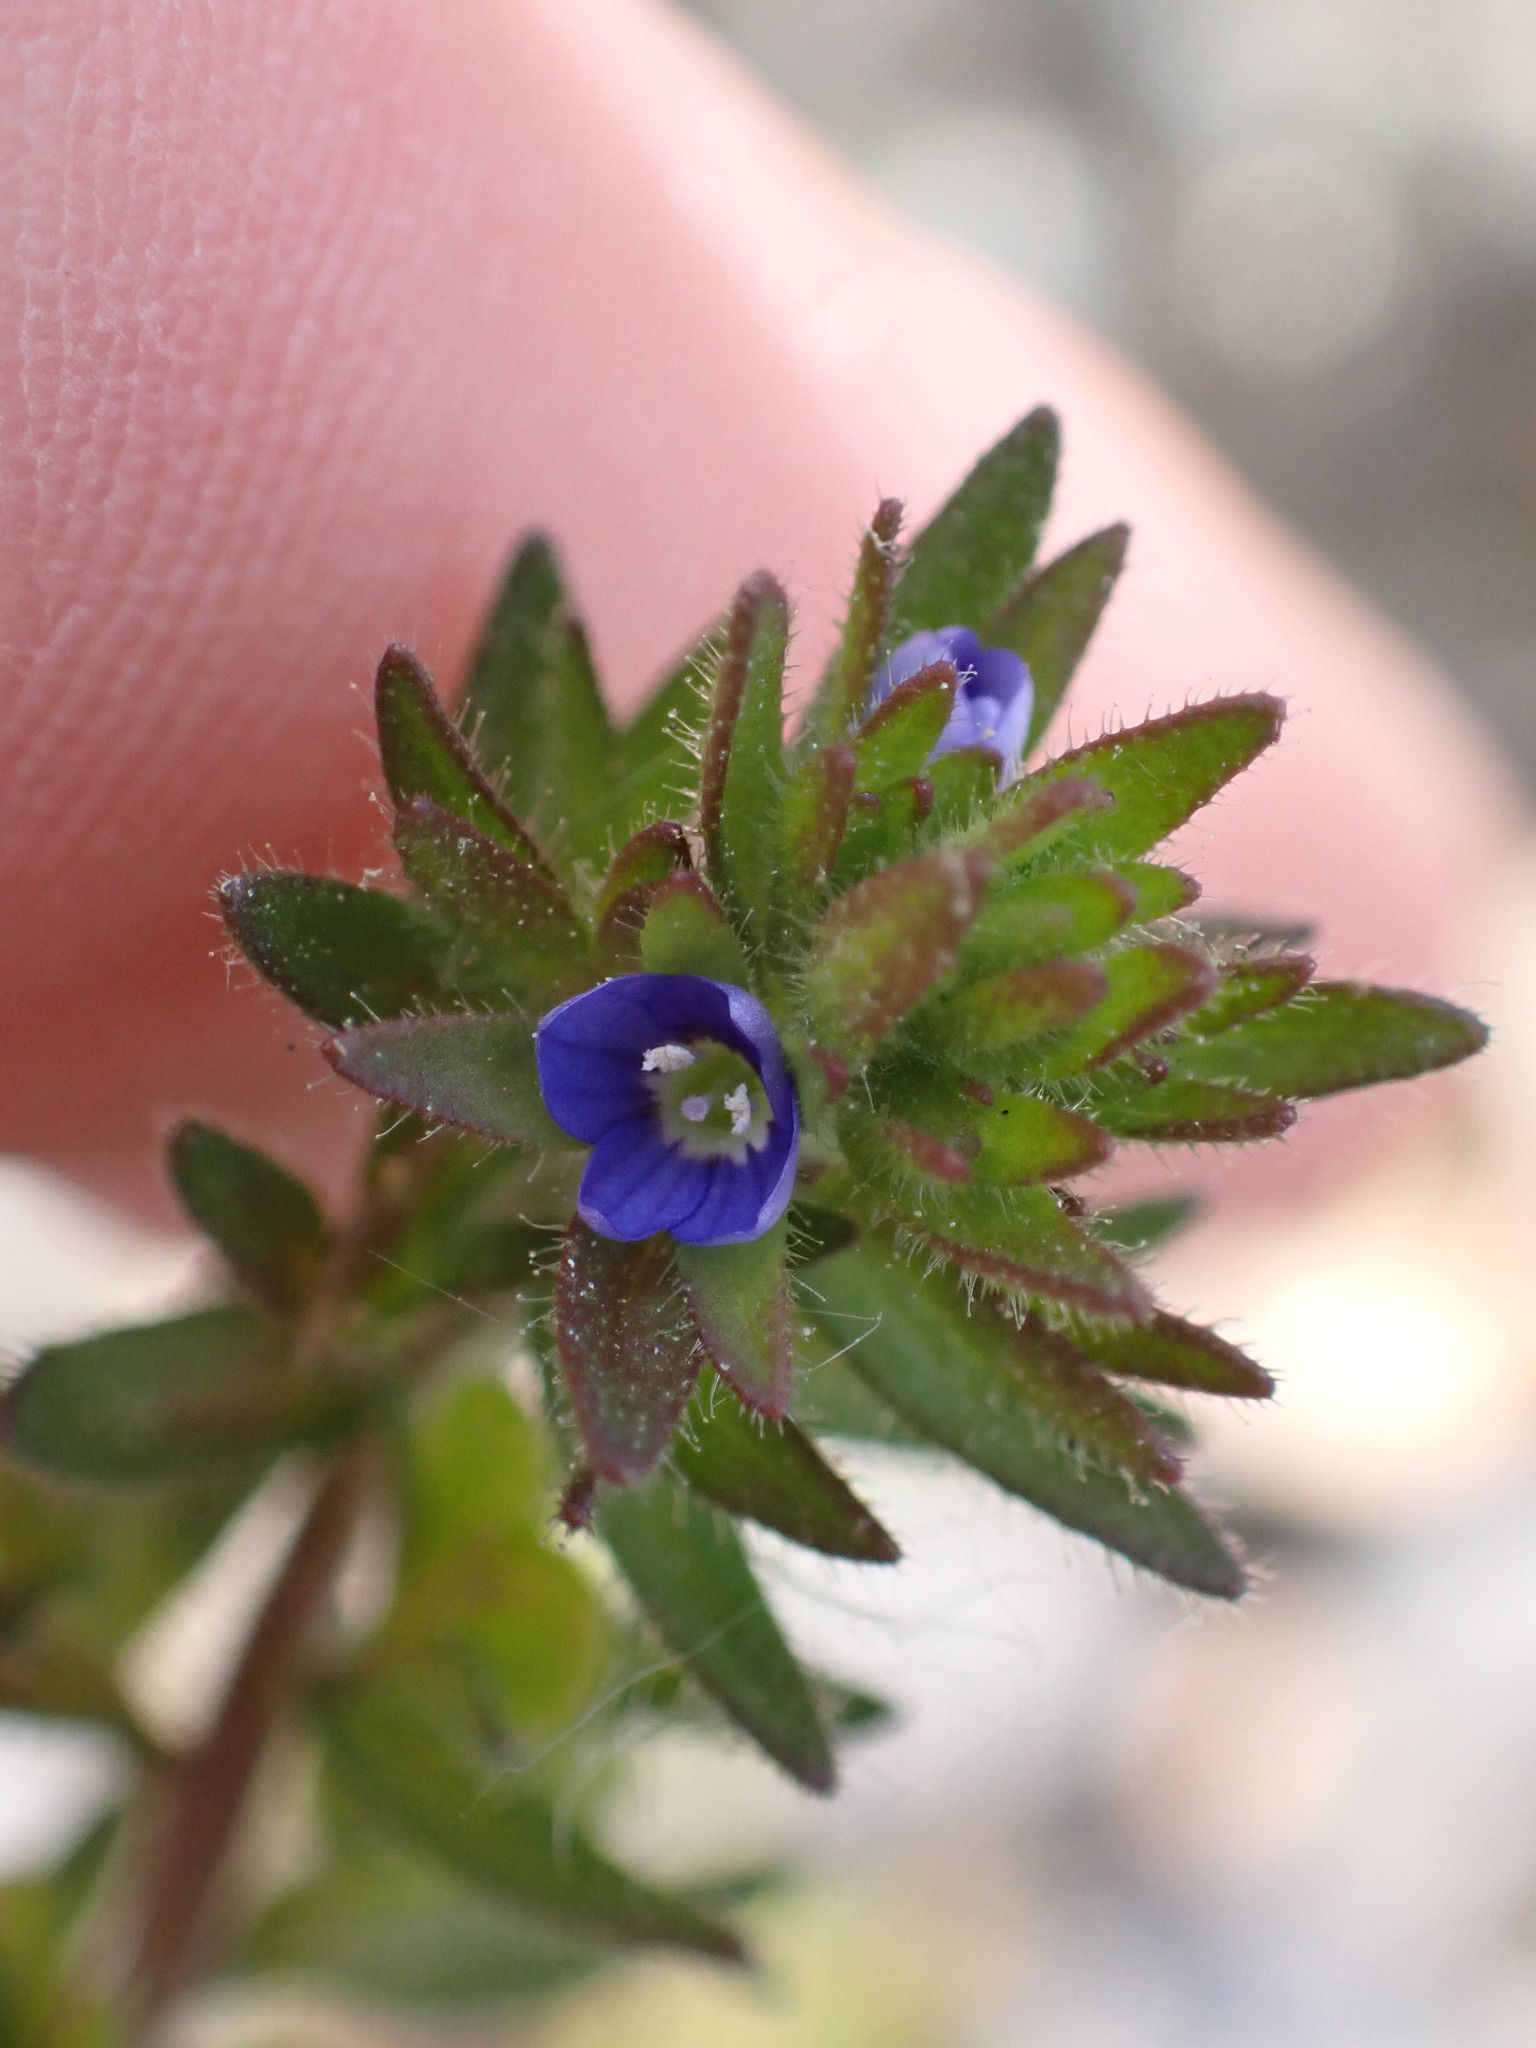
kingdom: Plantae
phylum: Tracheophyta
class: Magnoliopsida
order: Lamiales
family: Plantaginaceae
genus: Veronica
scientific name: Veronica arvensis
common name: Corn speedwell
